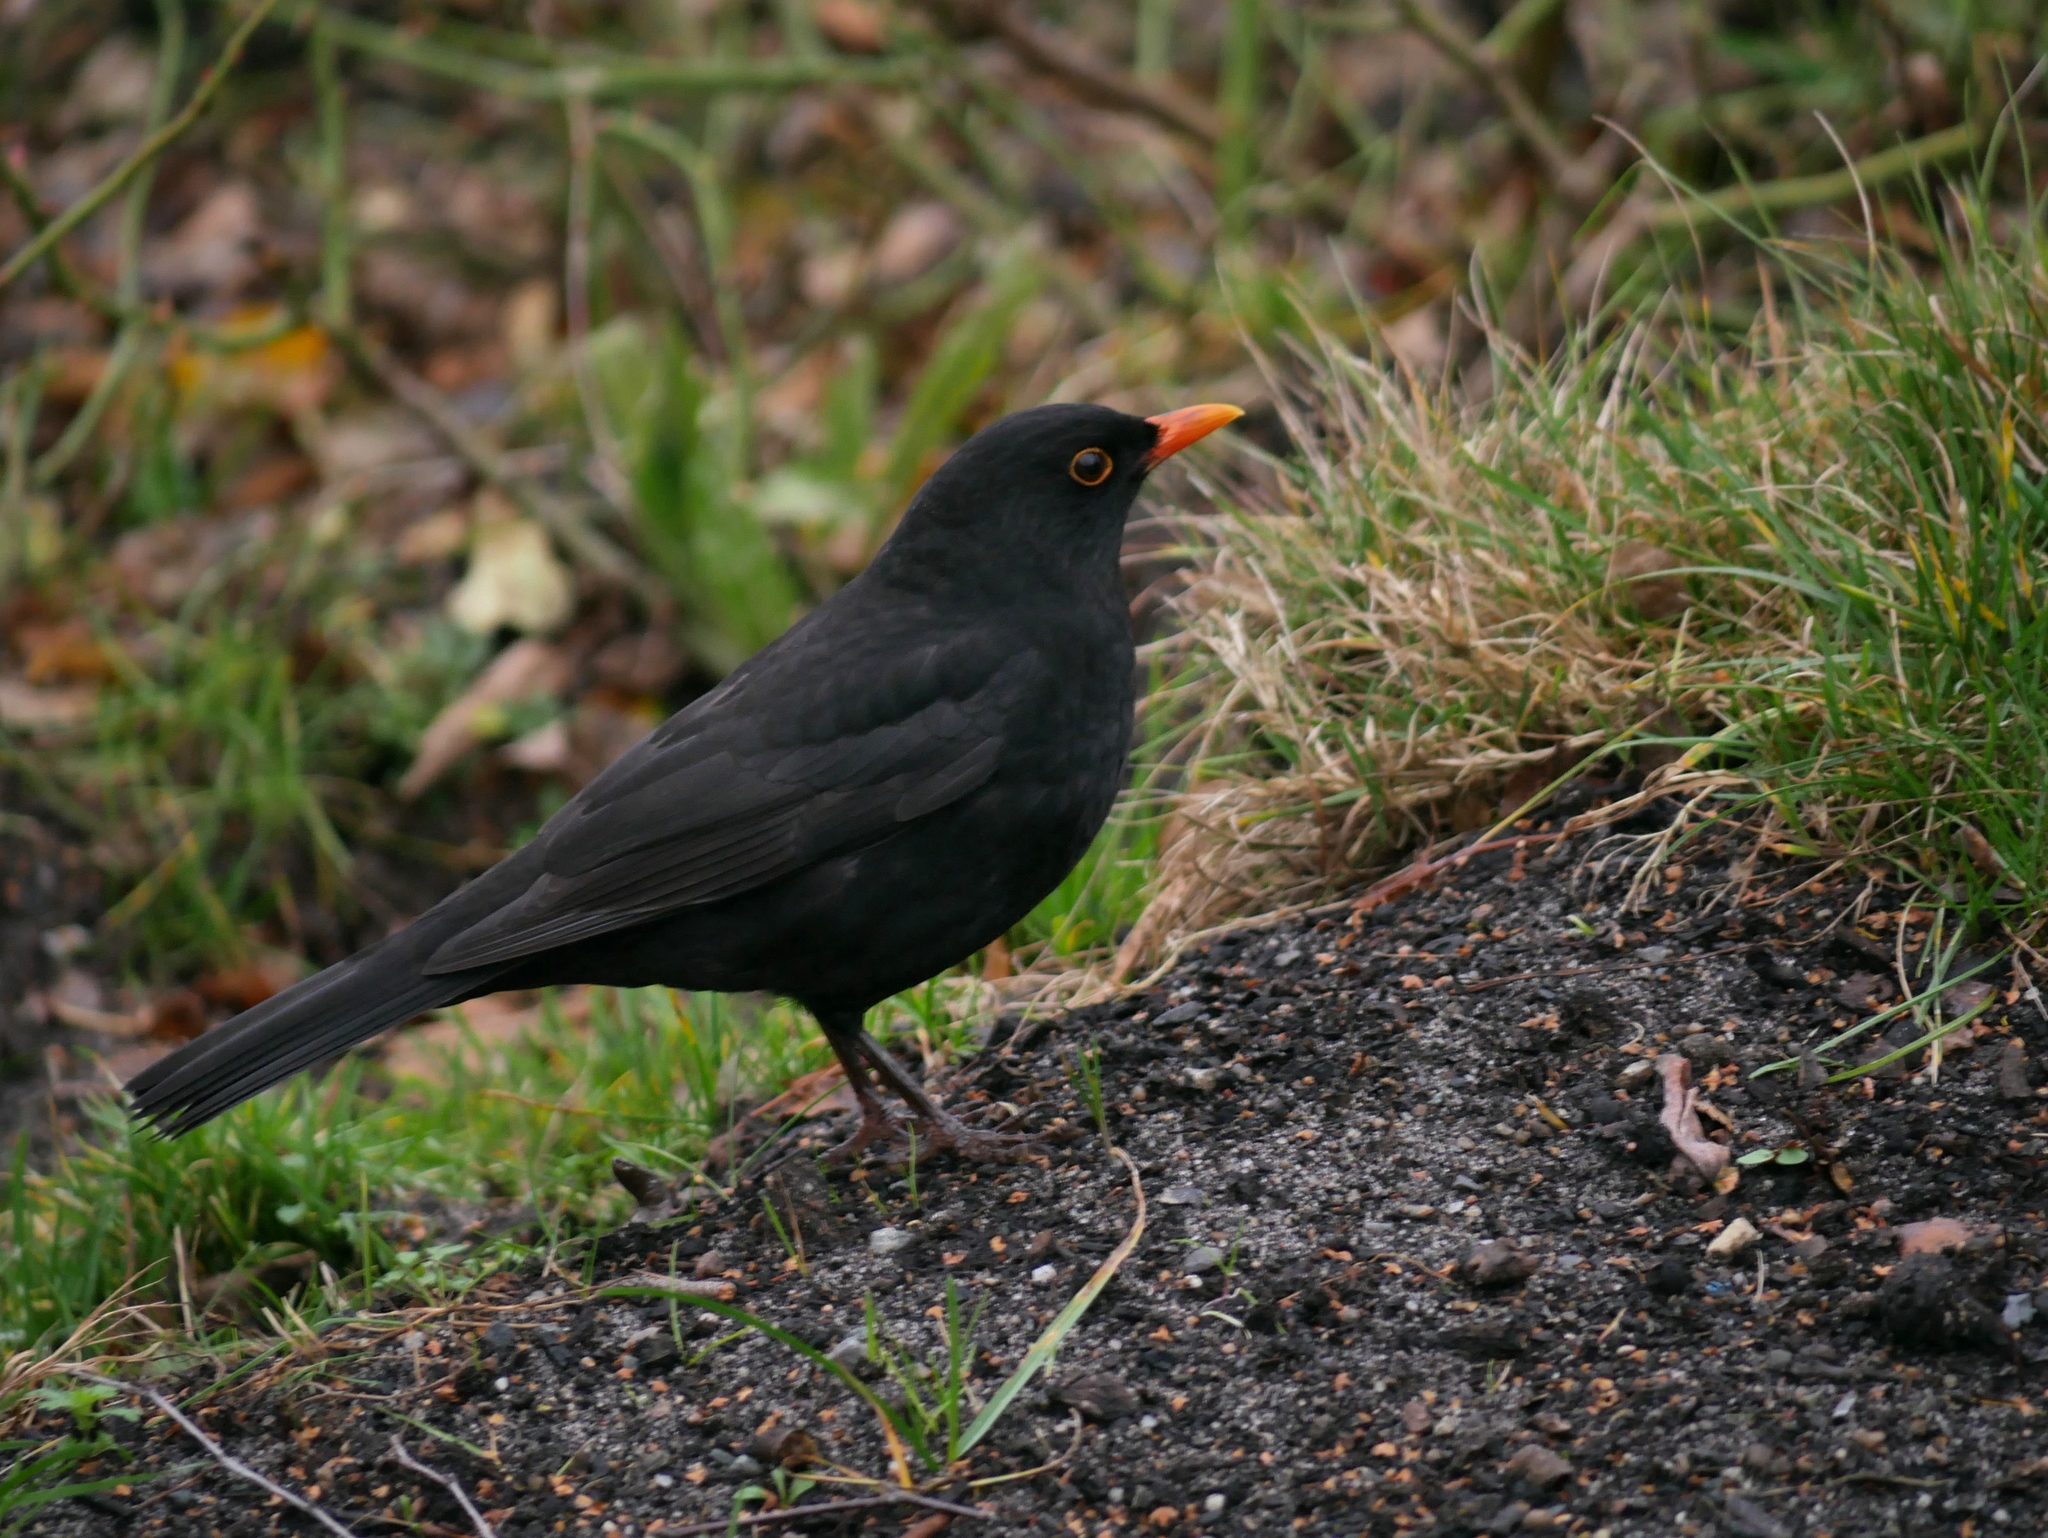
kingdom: Animalia
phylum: Chordata
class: Aves
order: Passeriformes
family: Turdidae
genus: Turdus
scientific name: Turdus merula
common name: Common blackbird
